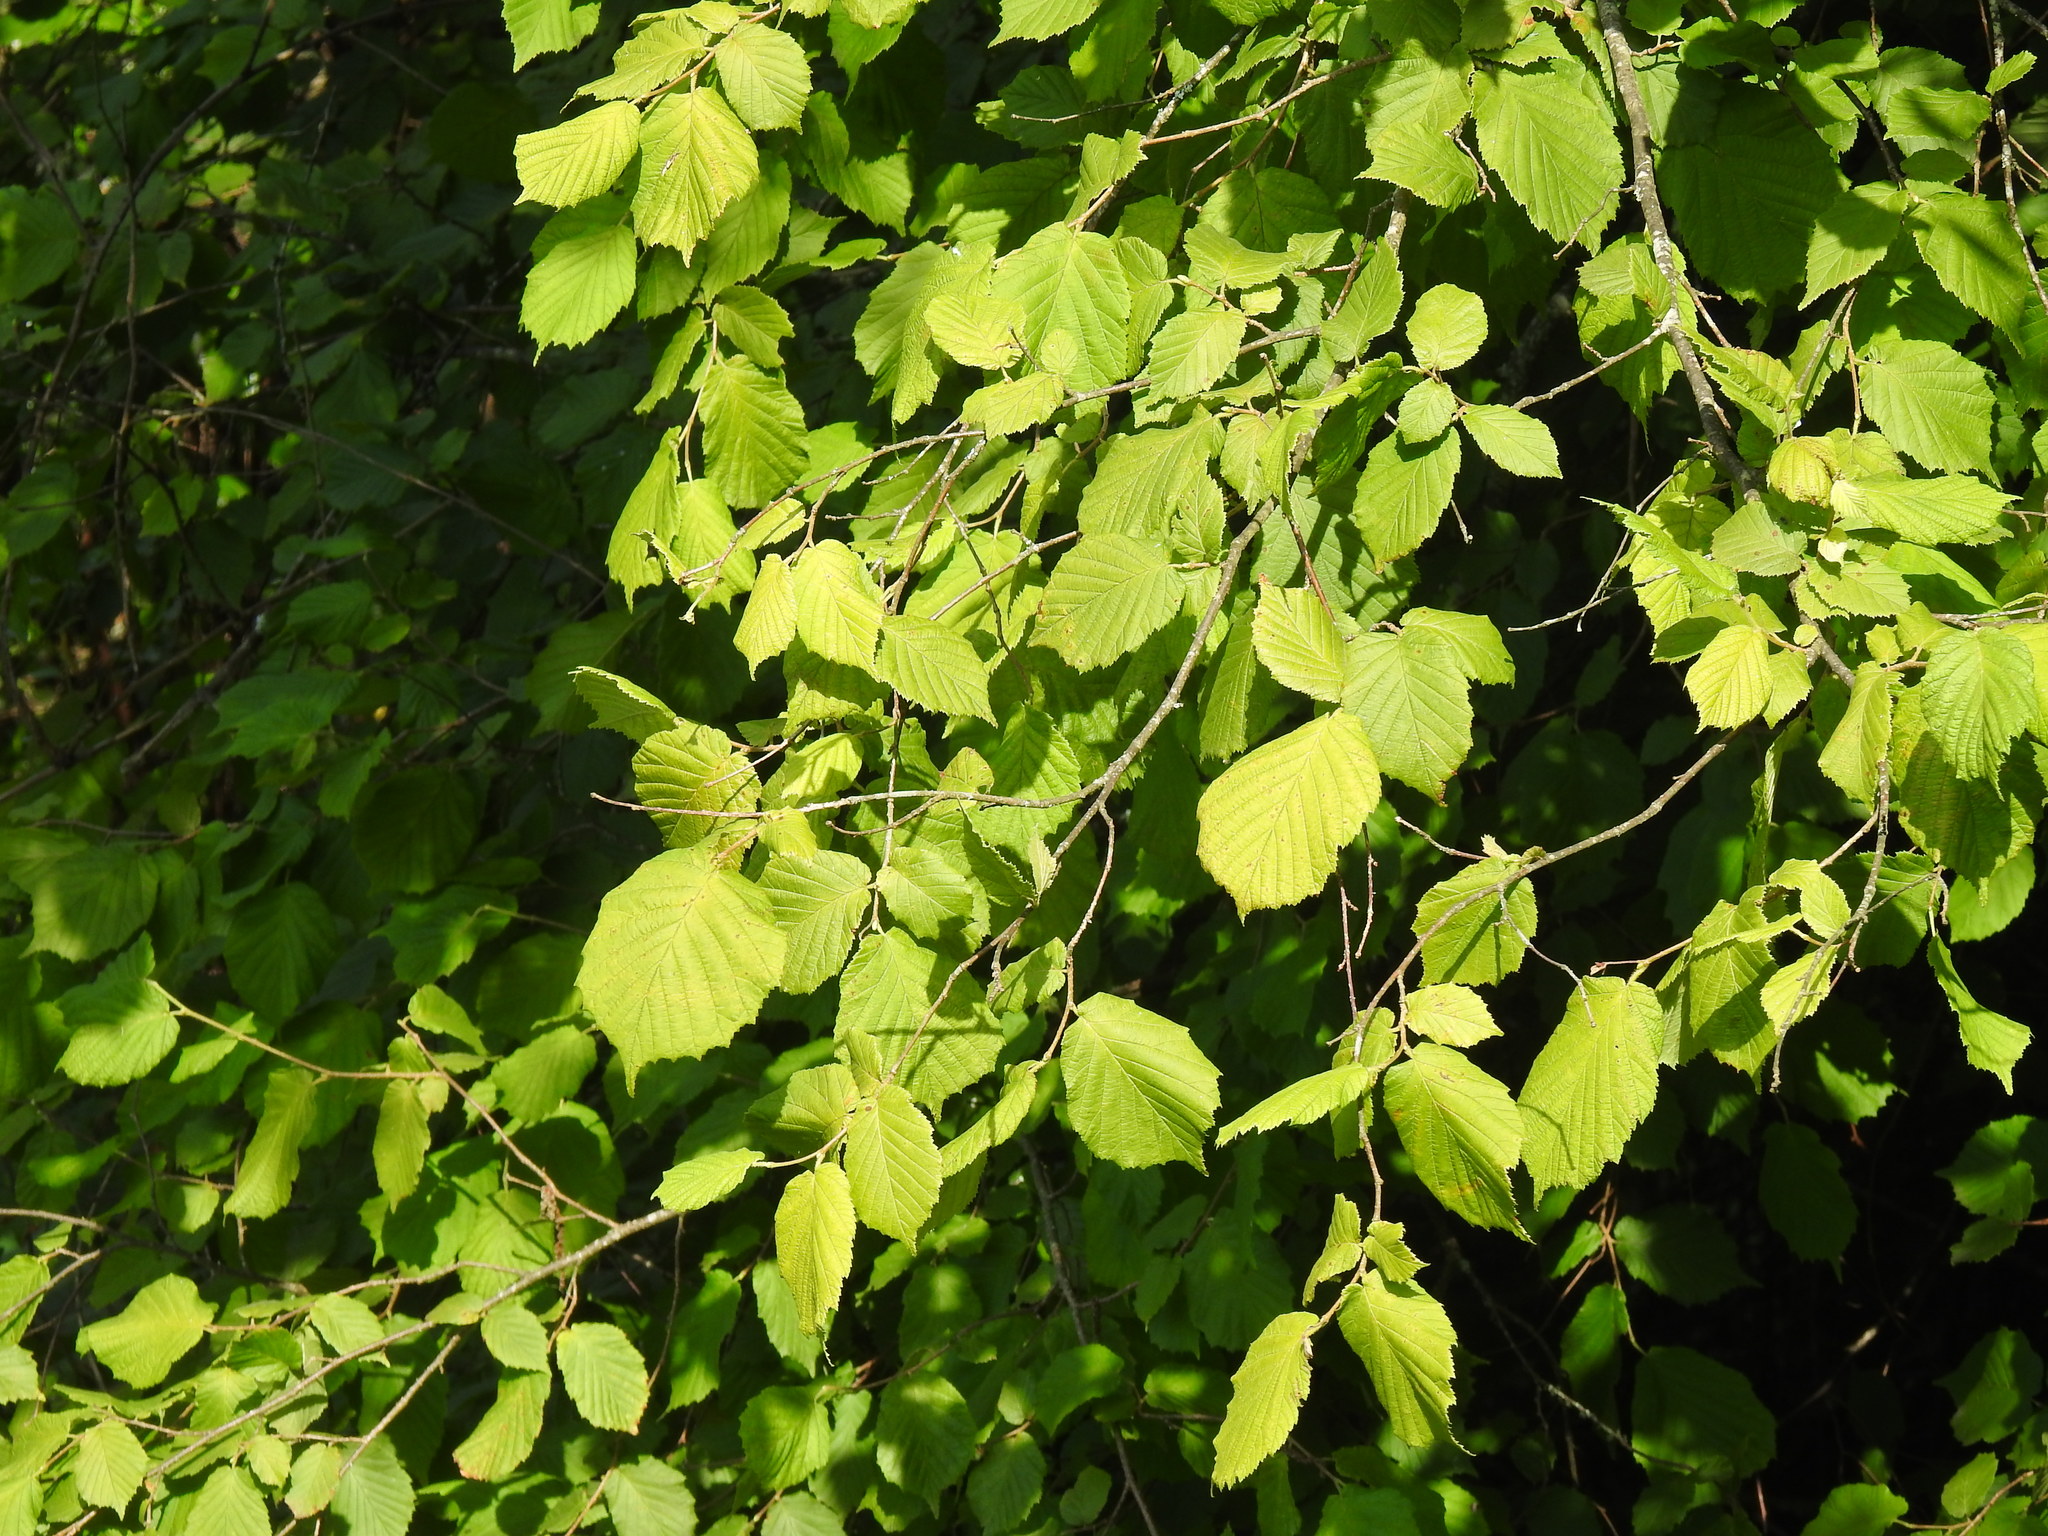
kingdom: Plantae
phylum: Tracheophyta
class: Magnoliopsida
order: Fagales
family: Betulaceae
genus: Corylus
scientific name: Corylus avellana
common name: European hazel
